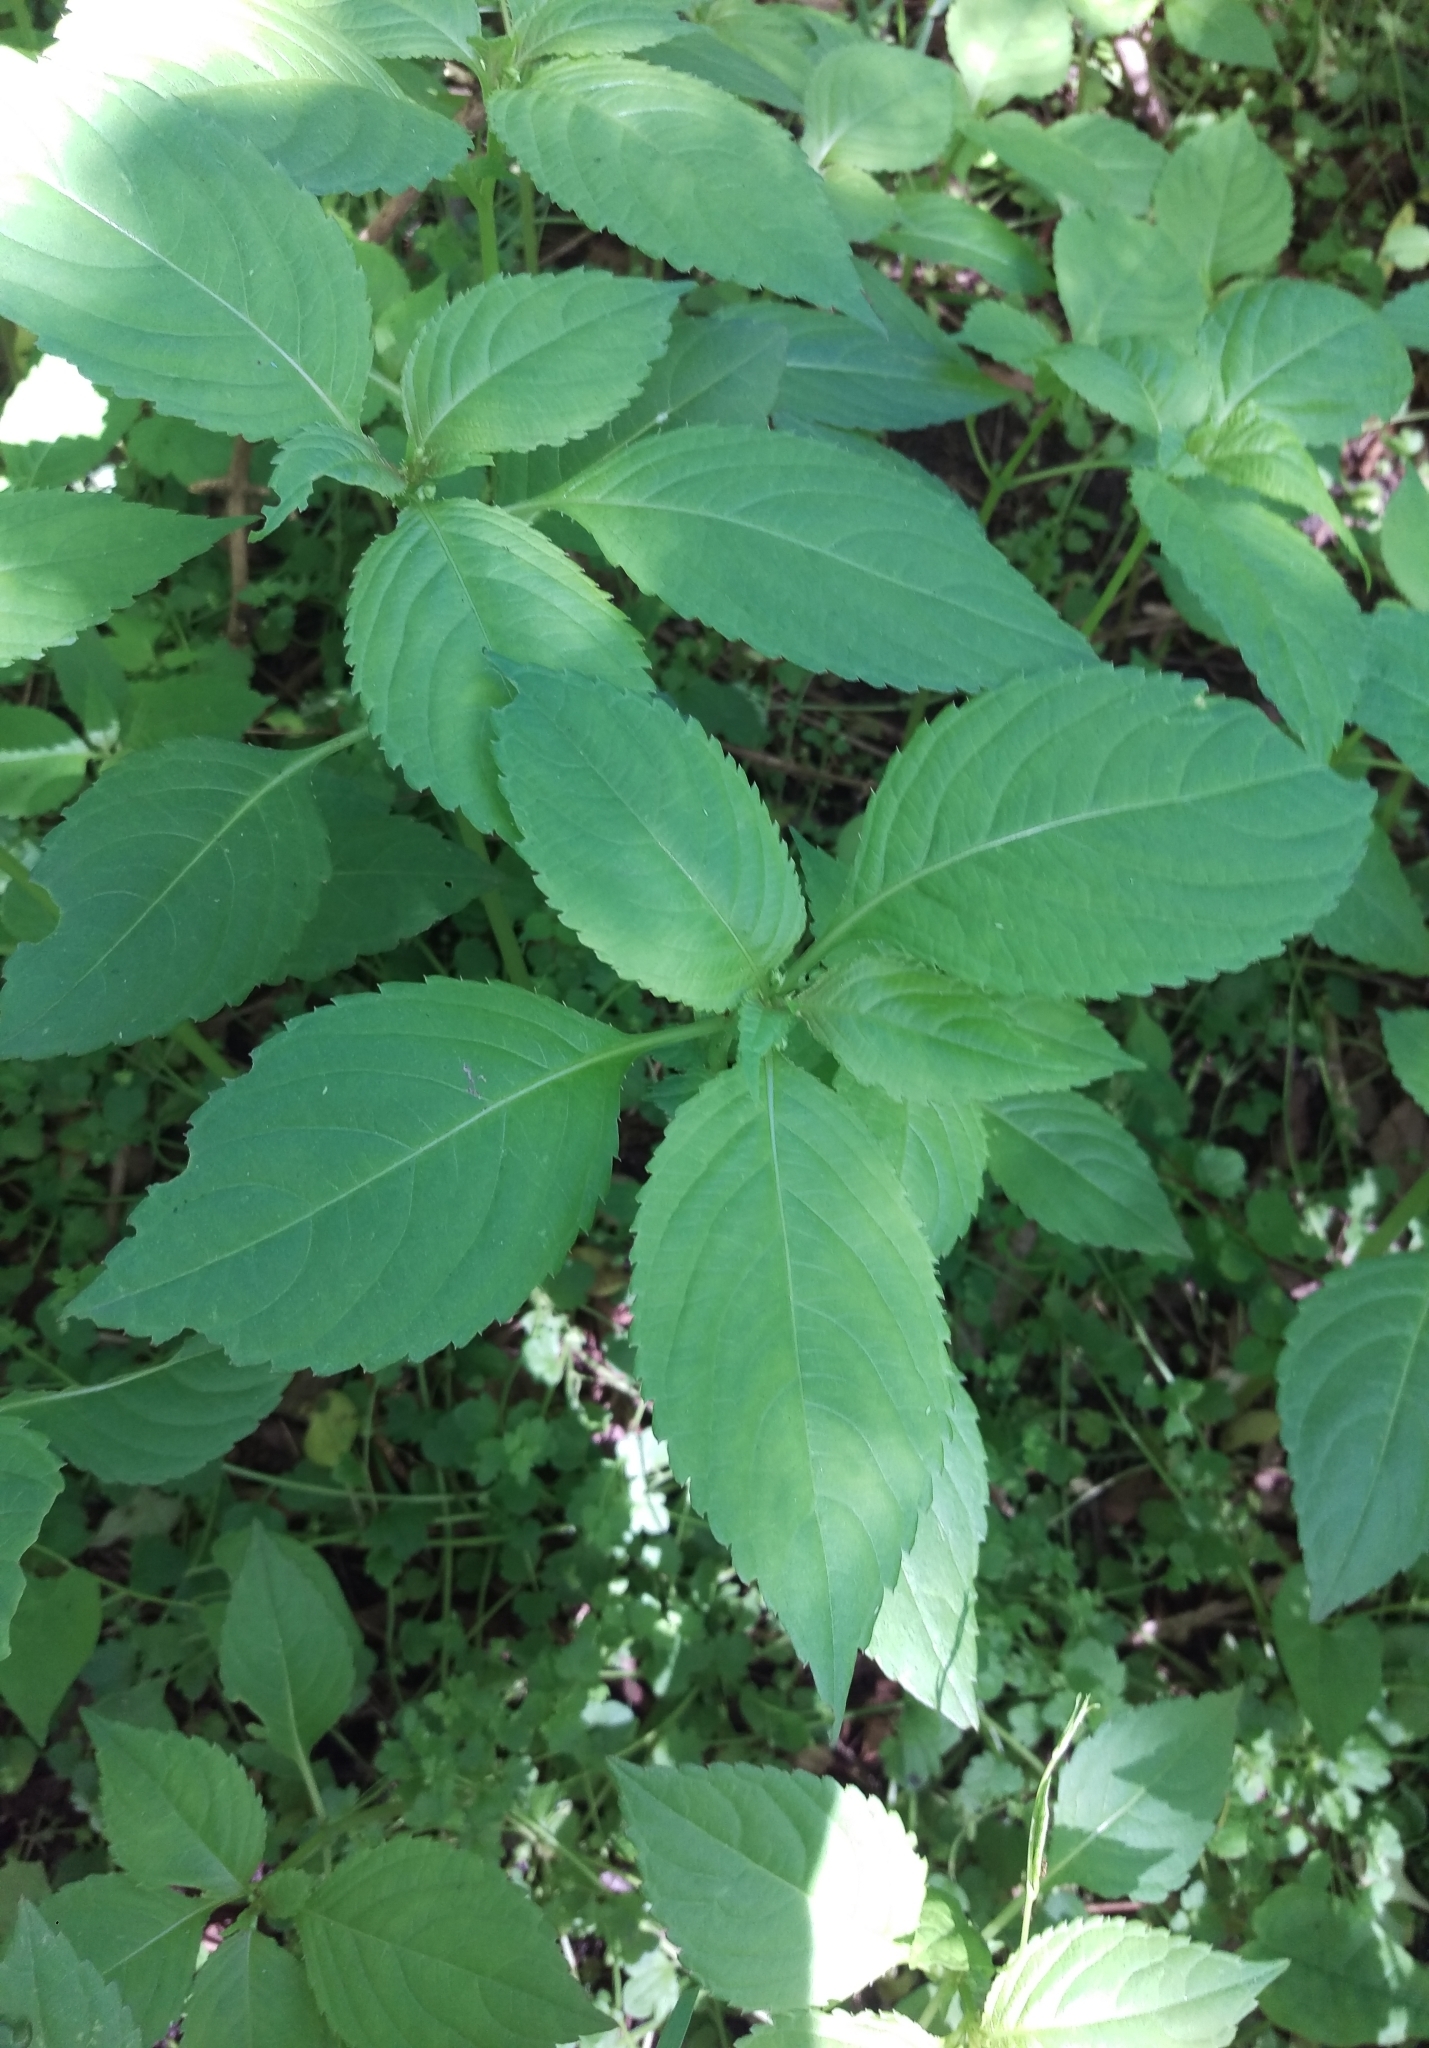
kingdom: Plantae
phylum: Tracheophyta
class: Magnoliopsida
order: Ericales
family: Balsaminaceae
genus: Impatiens
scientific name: Impatiens parviflora
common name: Small balsam
